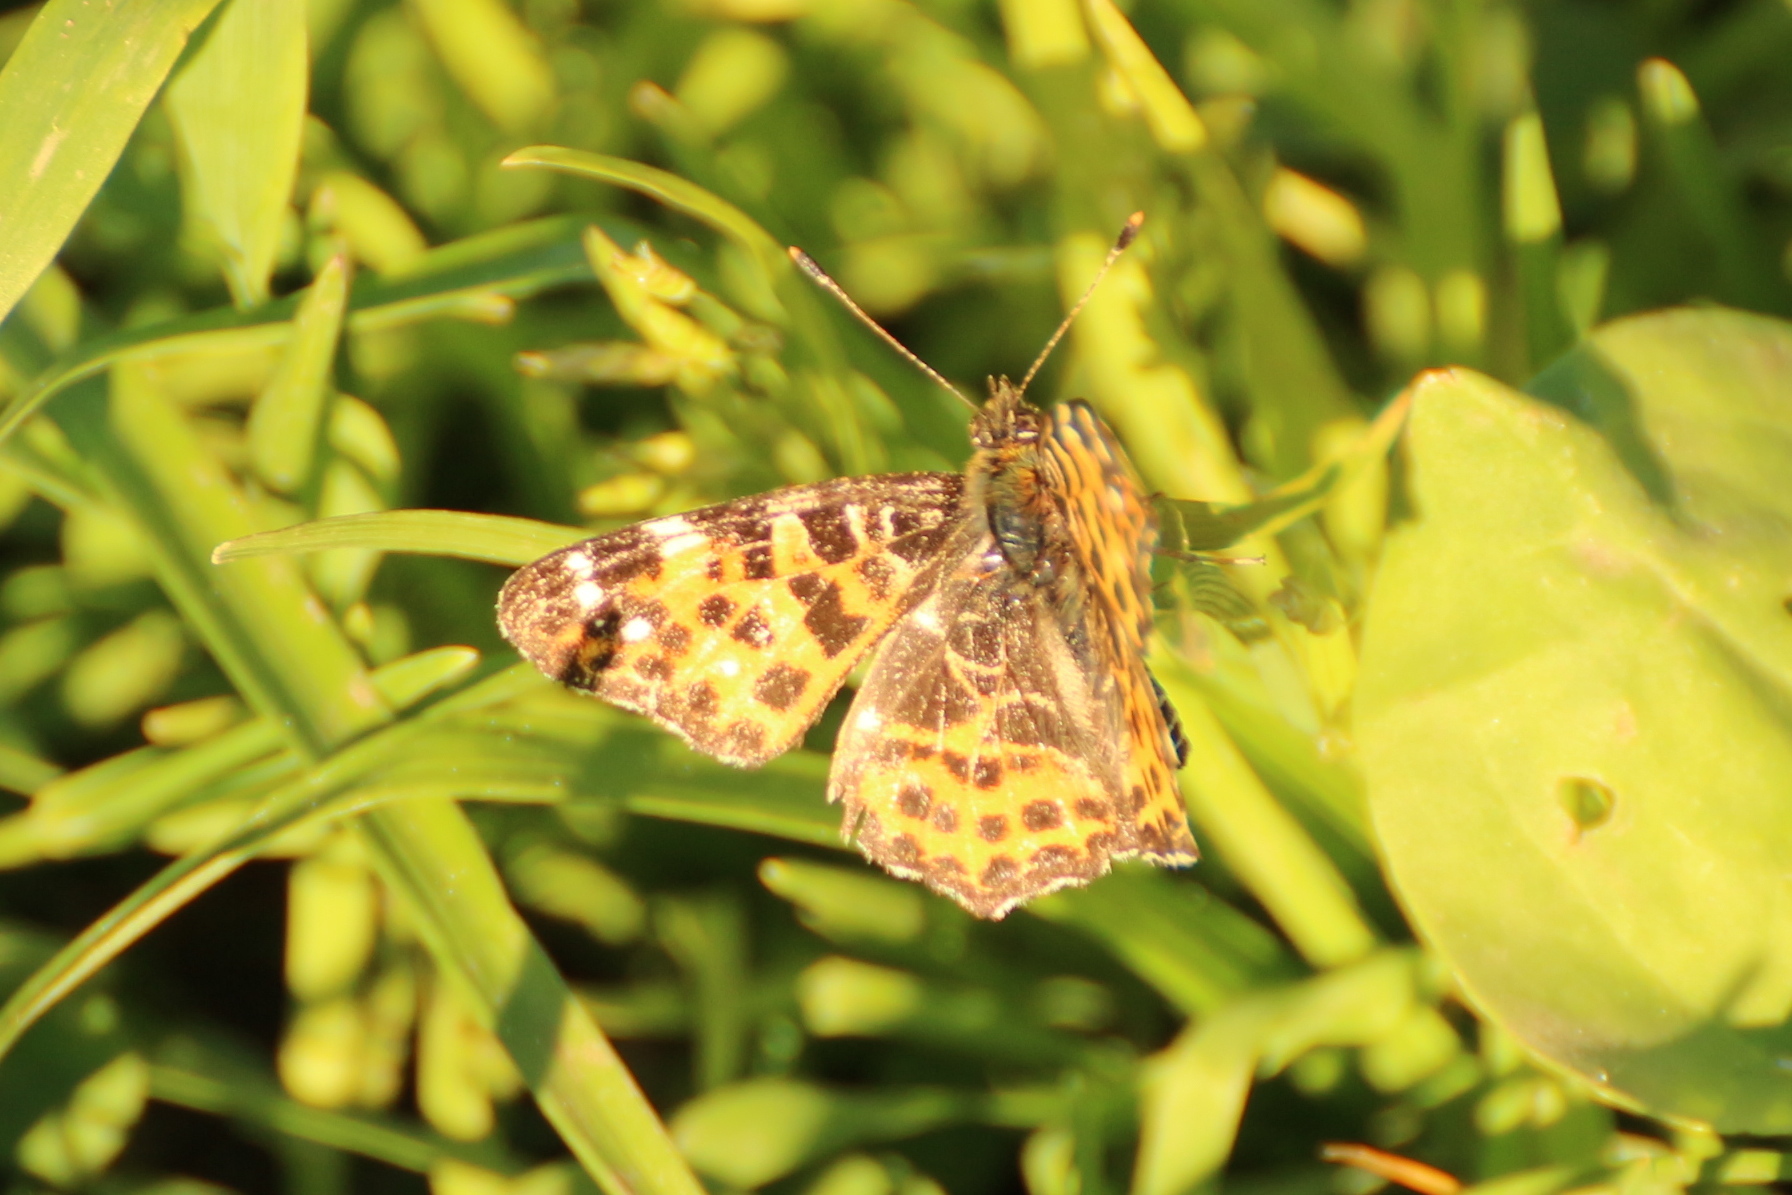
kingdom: Animalia
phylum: Arthropoda
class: Insecta
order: Lepidoptera
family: Nymphalidae
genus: Araschnia
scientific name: Araschnia levana
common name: Map butterfly
